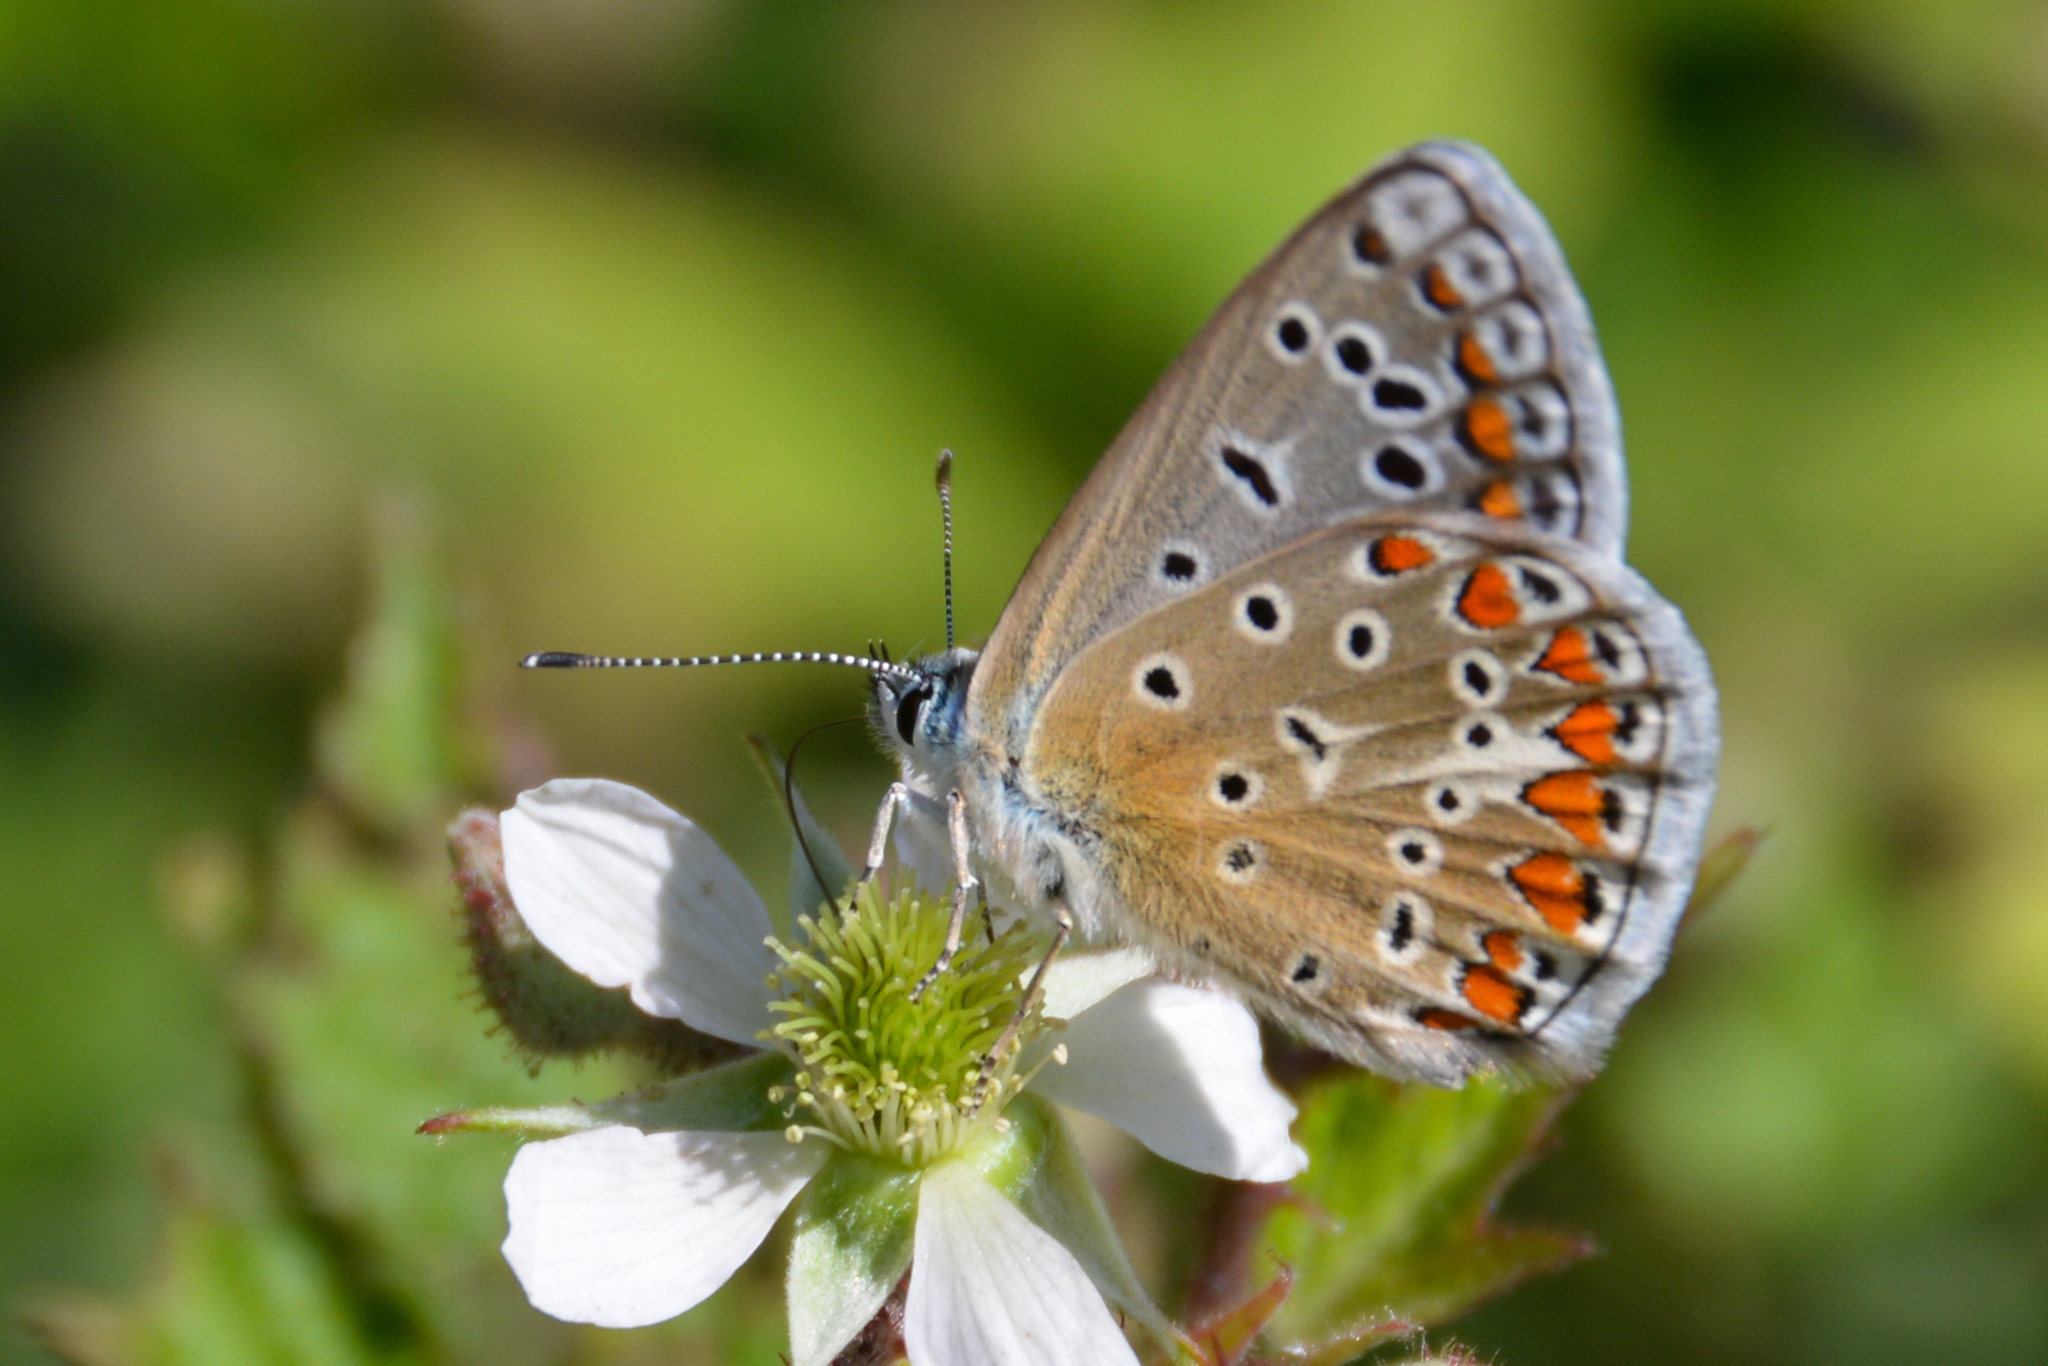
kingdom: Animalia
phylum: Arthropoda
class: Insecta
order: Lepidoptera
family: Lycaenidae
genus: Polyommatus
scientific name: Polyommatus celina
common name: Austaut's blue
